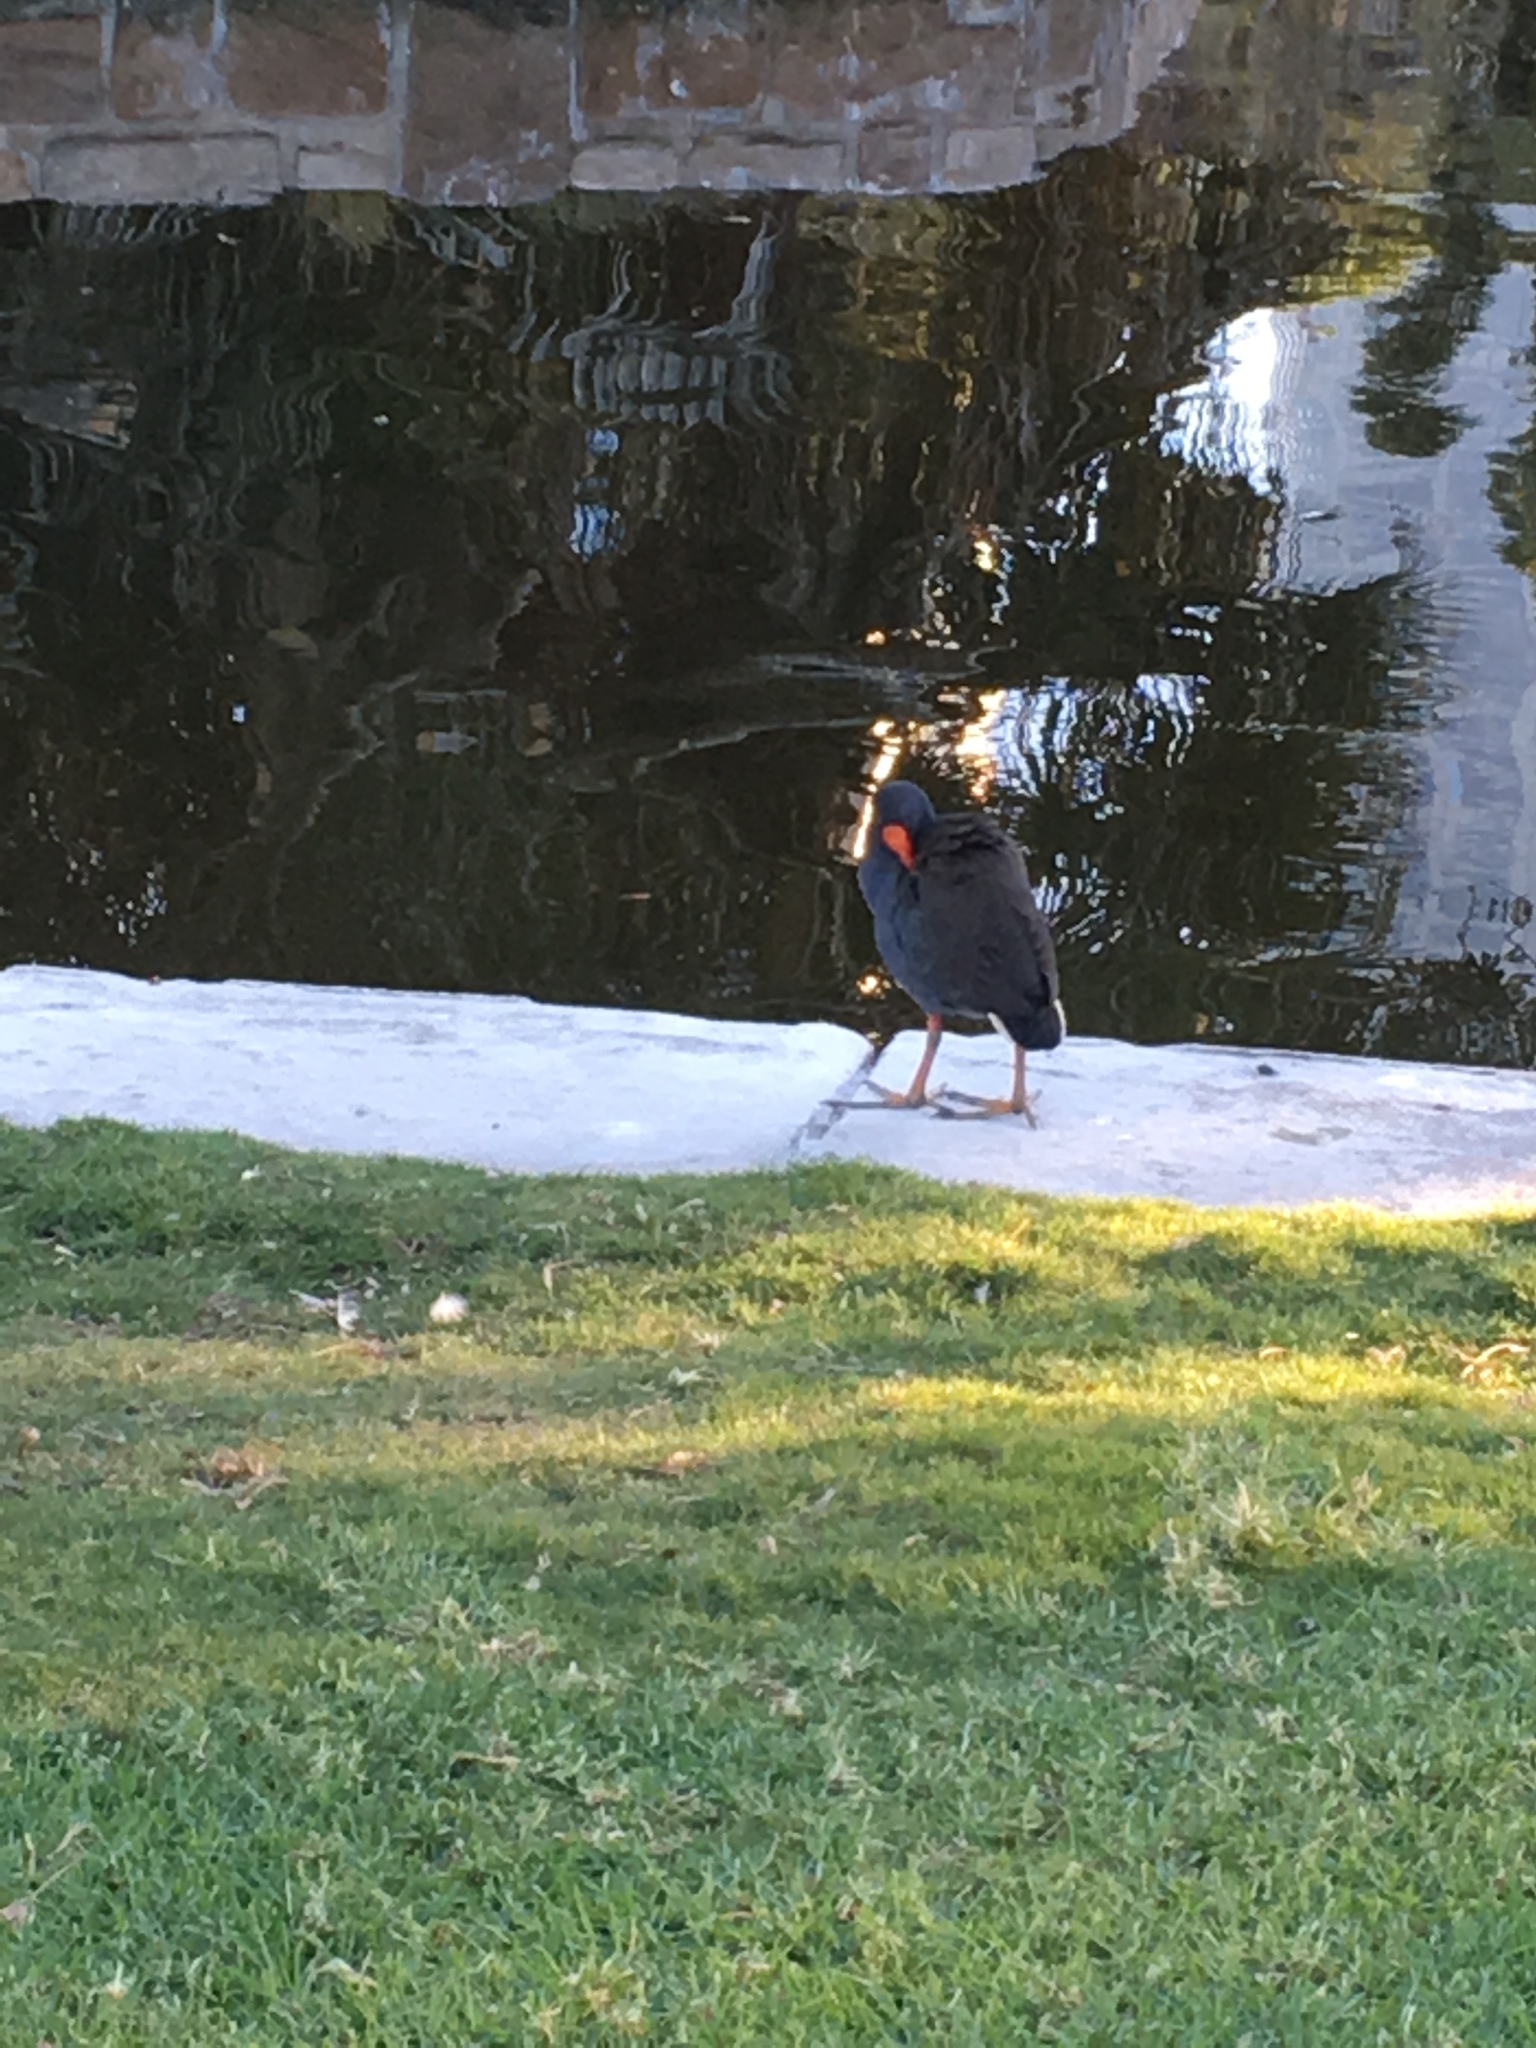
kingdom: Animalia
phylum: Chordata
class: Aves
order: Gruiformes
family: Rallidae
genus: Gallinula
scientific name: Gallinula tenebrosa
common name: Dusky moorhen
